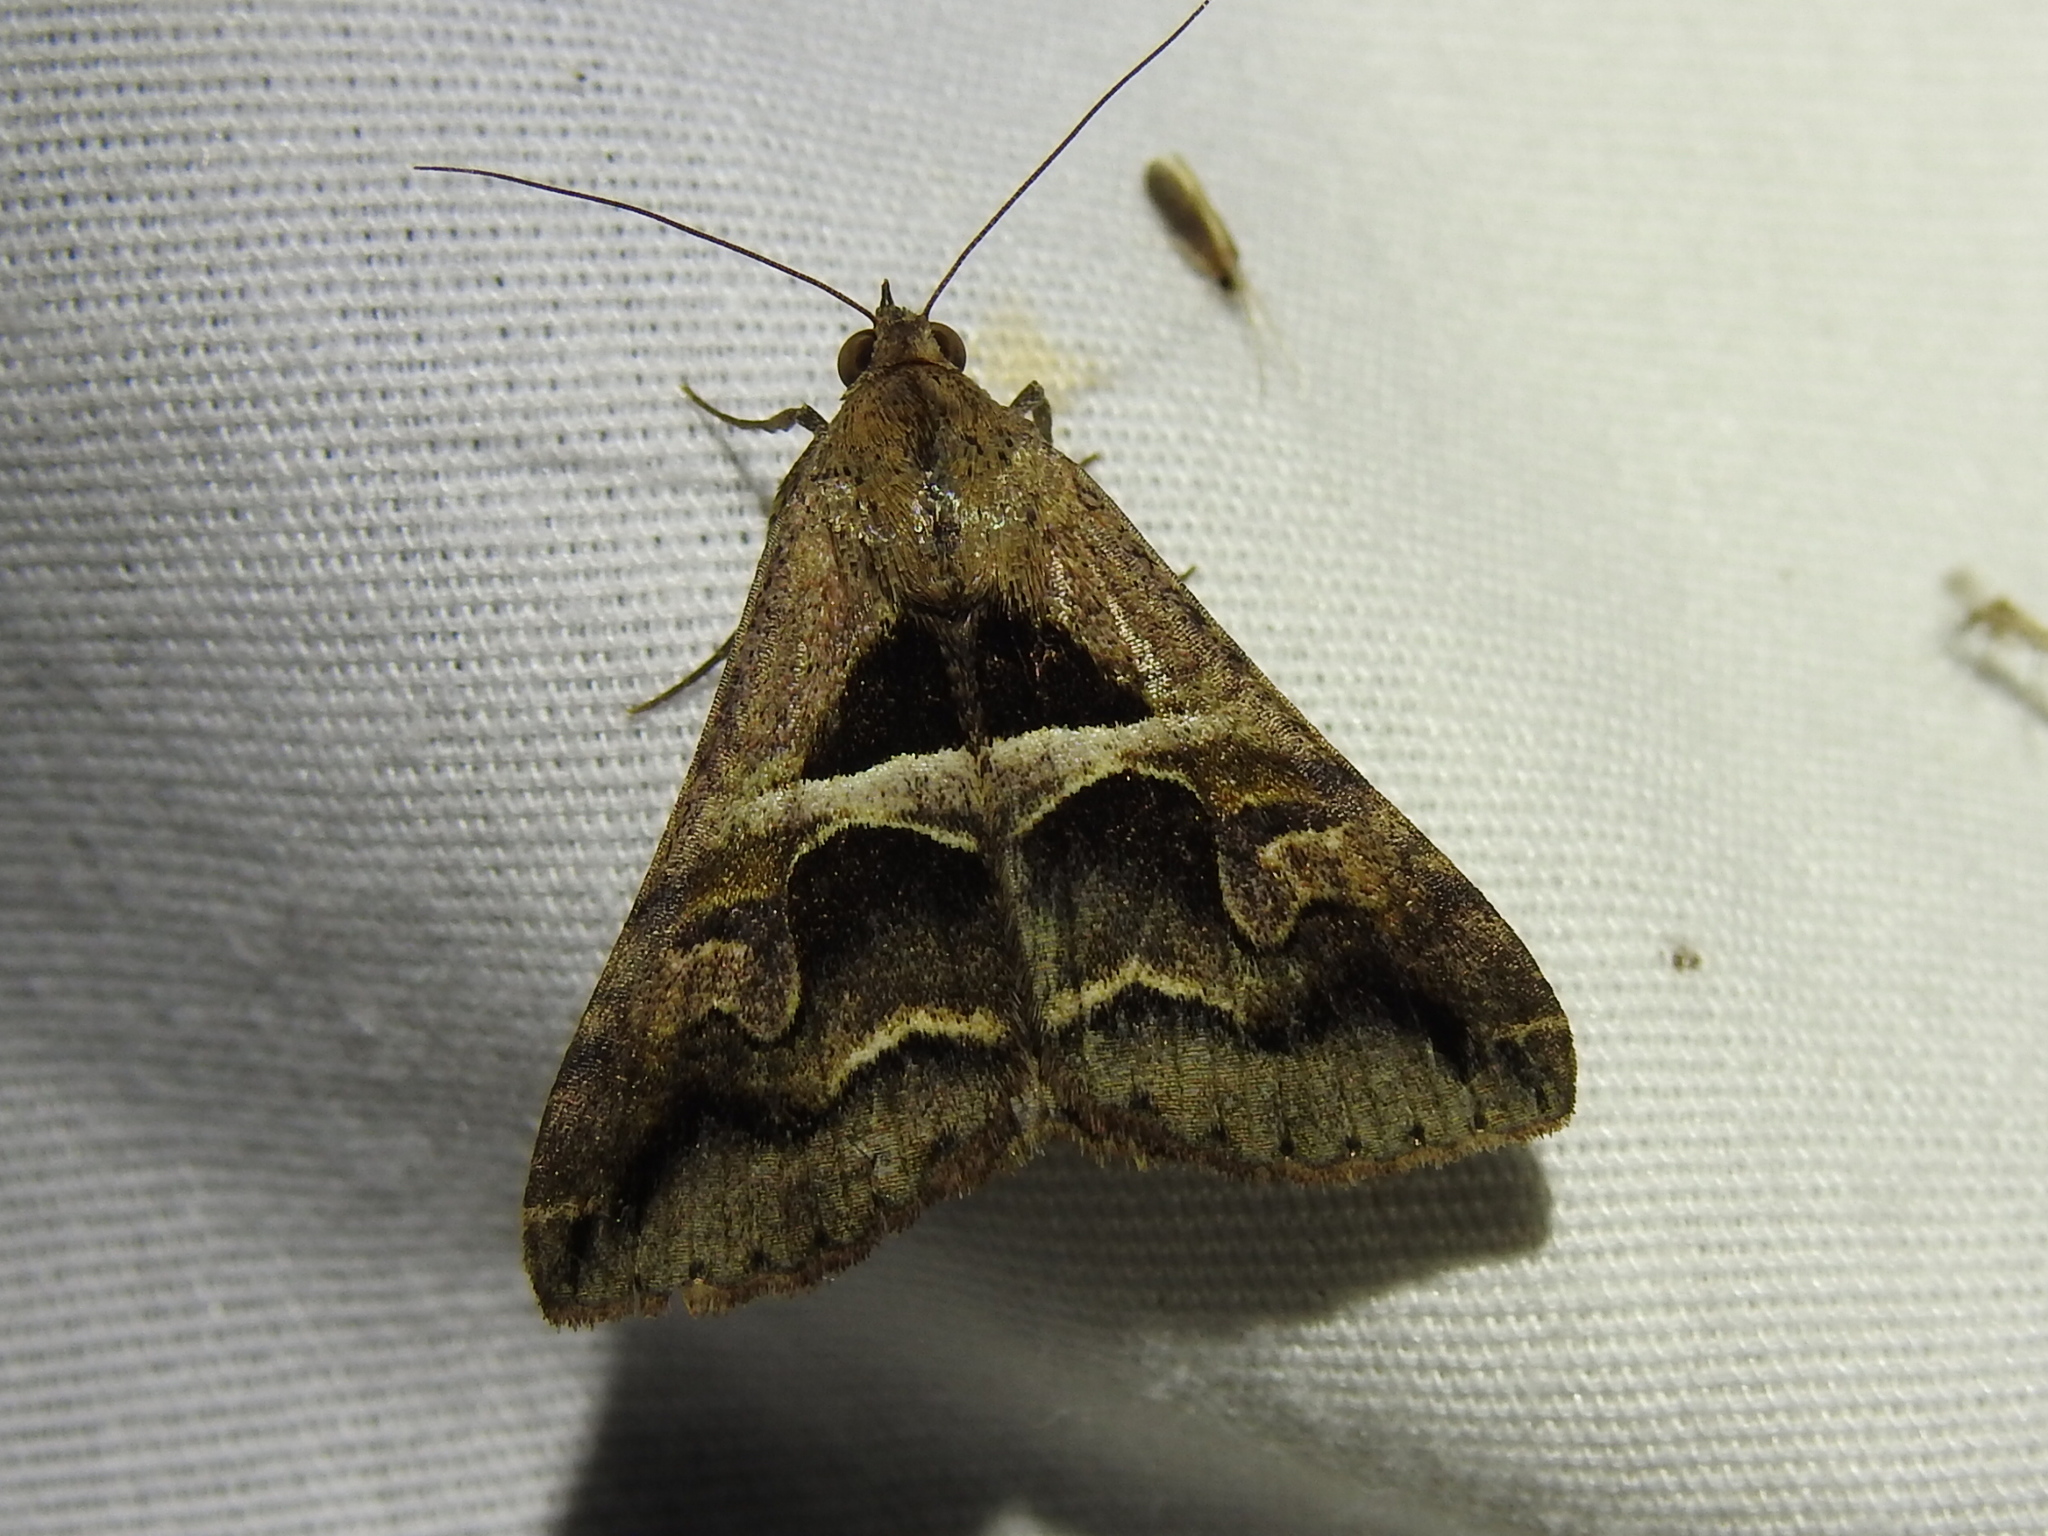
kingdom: Animalia
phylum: Arthropoda
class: Insecta
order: Lepidoptera
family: Erebidae
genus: Melipotis
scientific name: Melipotis cellaris
